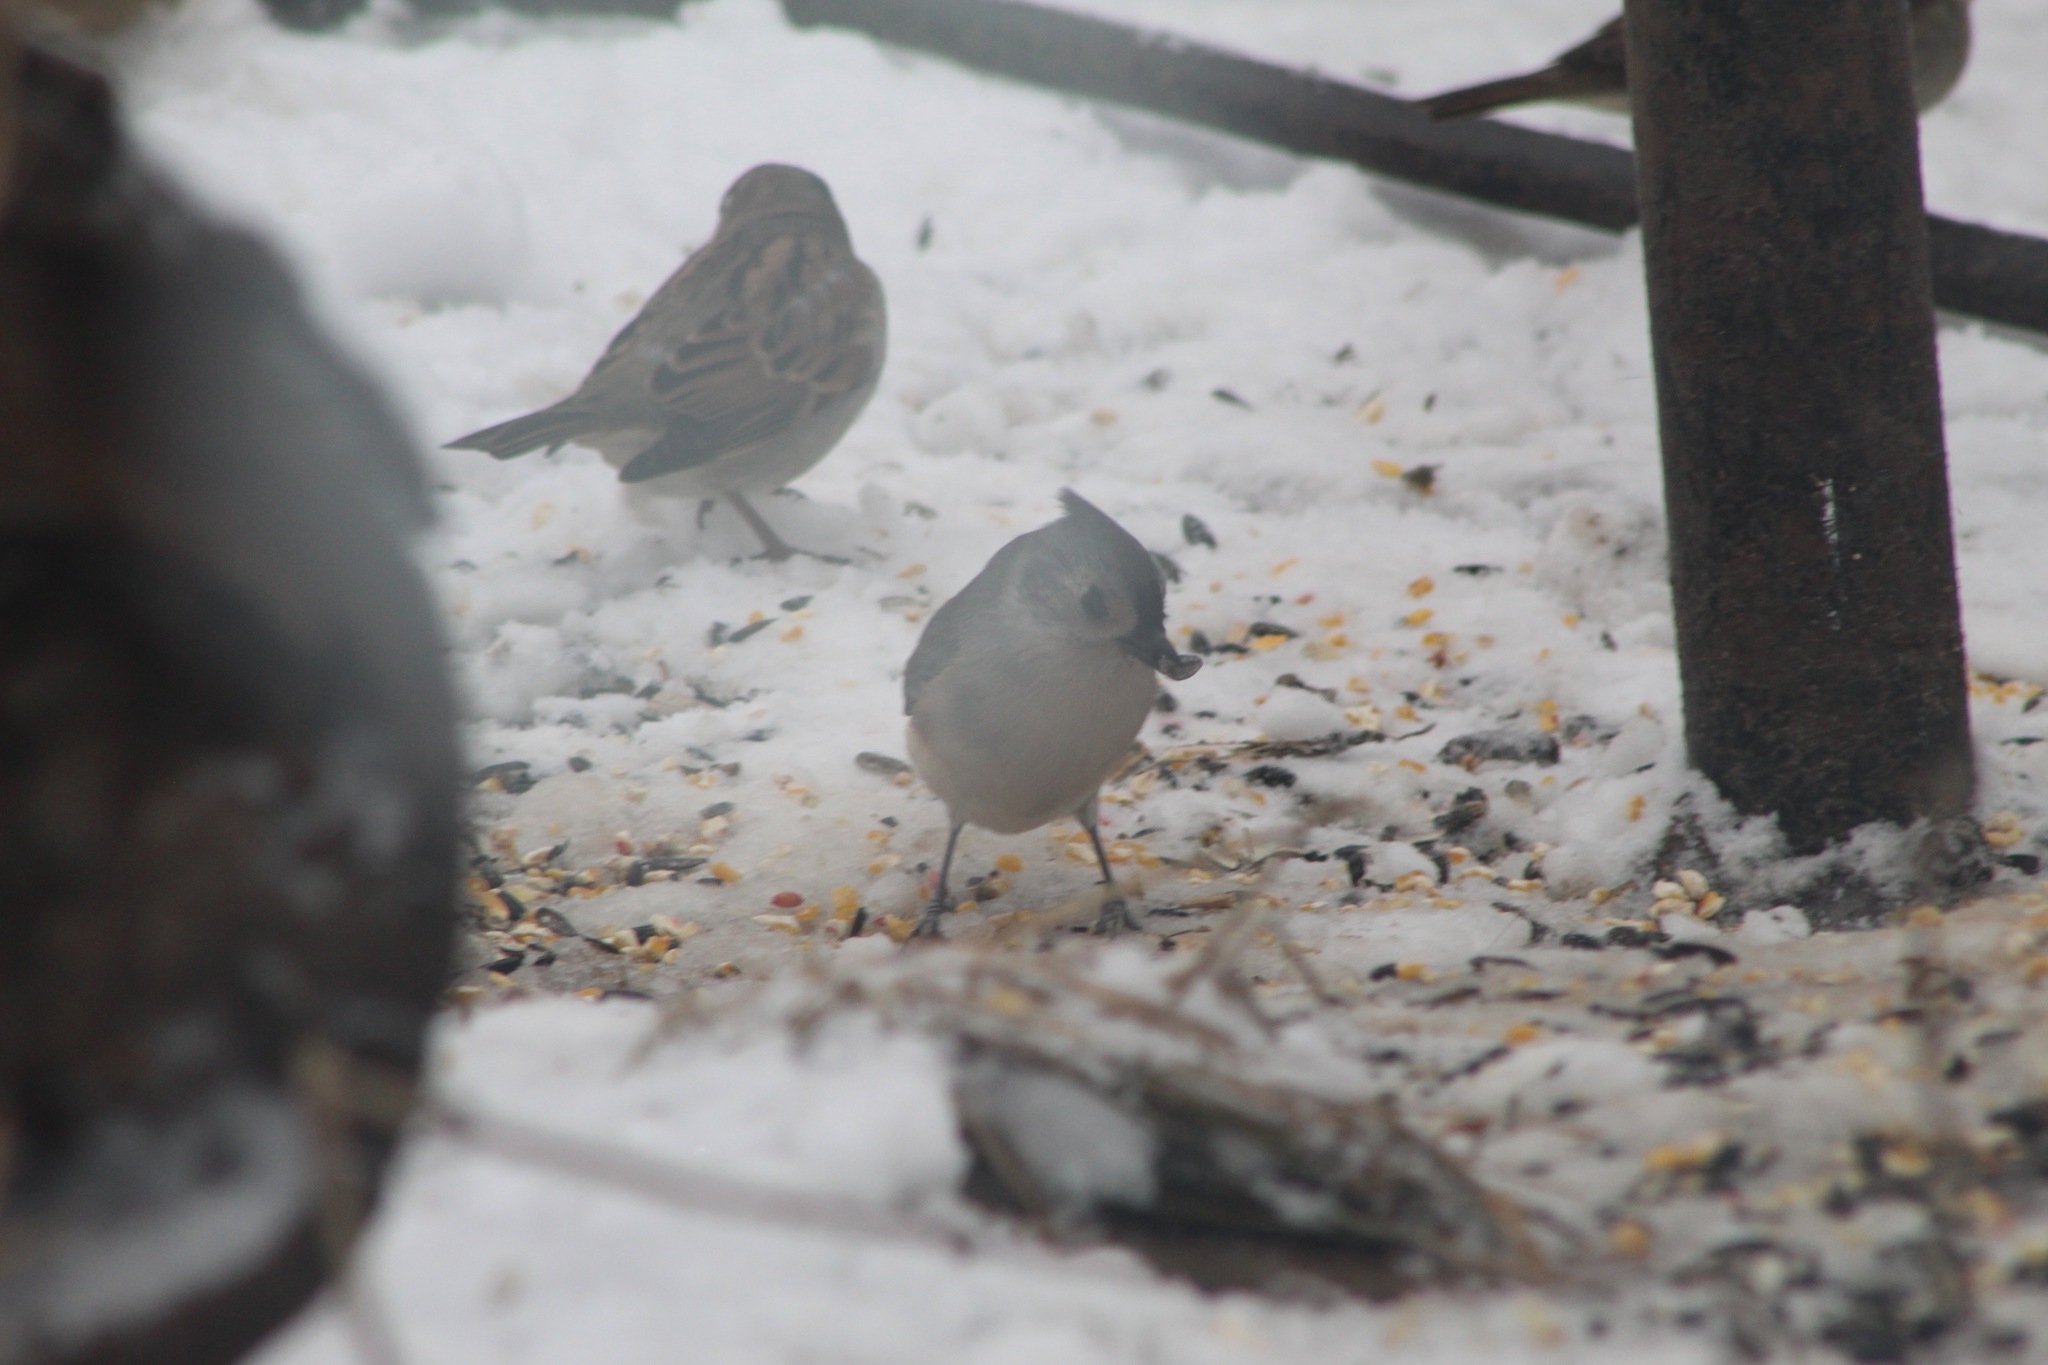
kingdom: Animalia
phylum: Chordata
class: Aves
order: Passeriformes
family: Paridae
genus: Baeolophus
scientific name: Baeolophus bicolor
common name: Tufted titmouse
